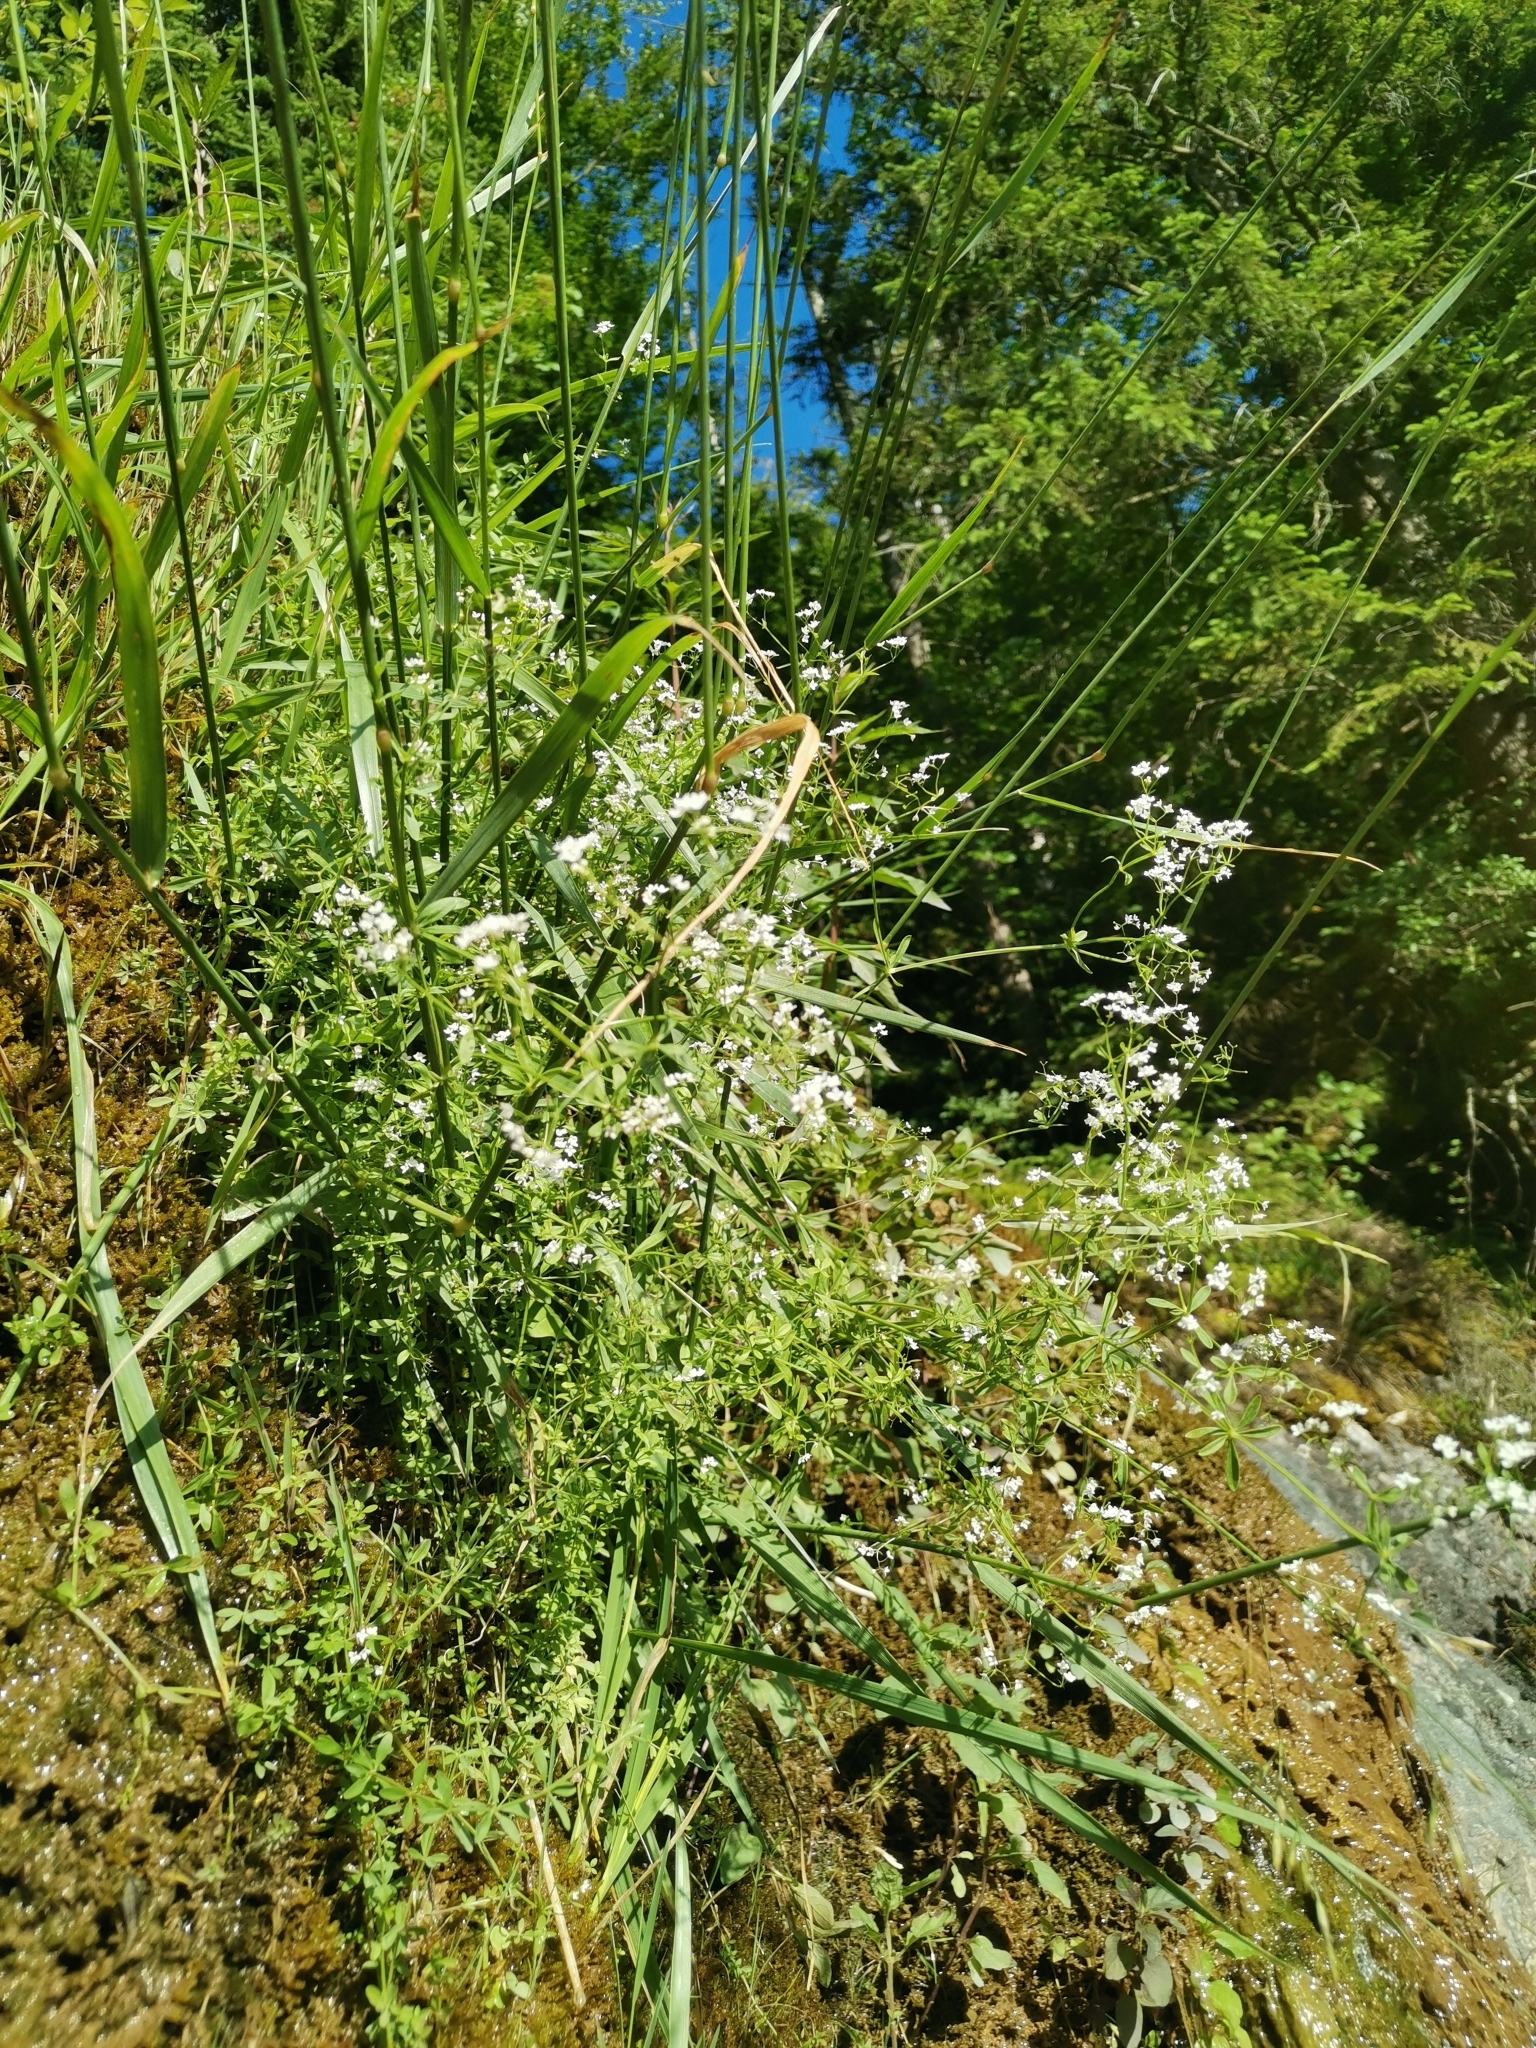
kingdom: Plantae
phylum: Tracheophyta
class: Magnoliopsida
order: Gentianales
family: Rubiaceae
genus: Galium
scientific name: Galium elongatum
